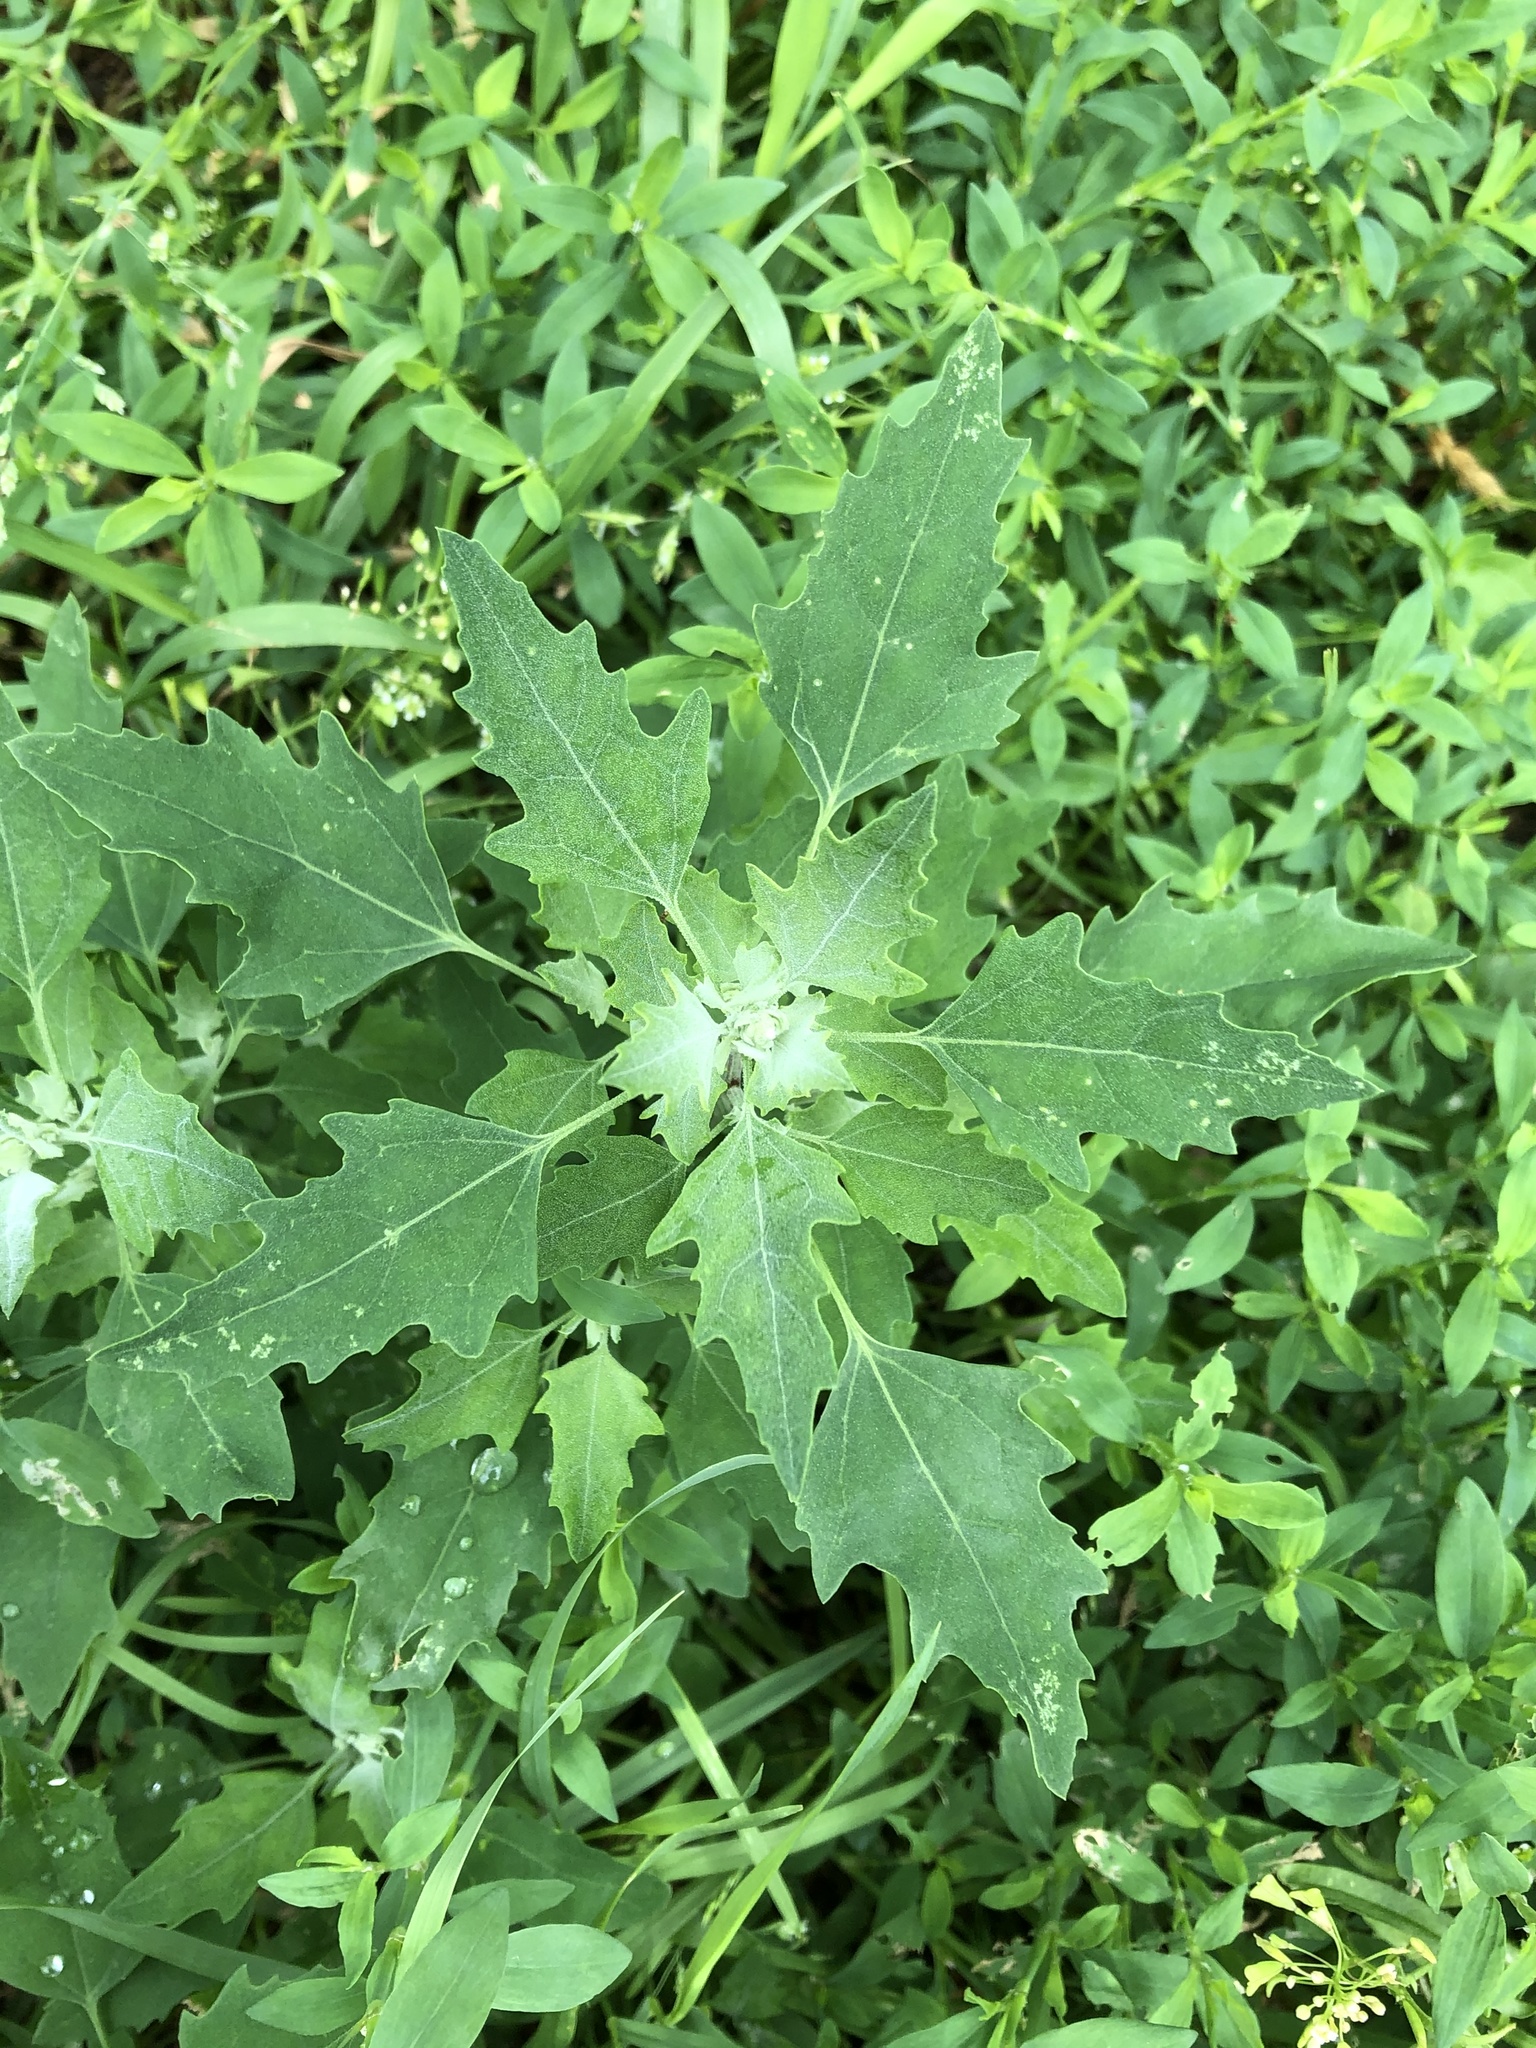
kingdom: Plantae
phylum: Tracheophyta
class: Magnoliopsida
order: Caryophyllales
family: Amaranthaceae
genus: Chenopodium
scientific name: Chenopodium album
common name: Fat-hen
